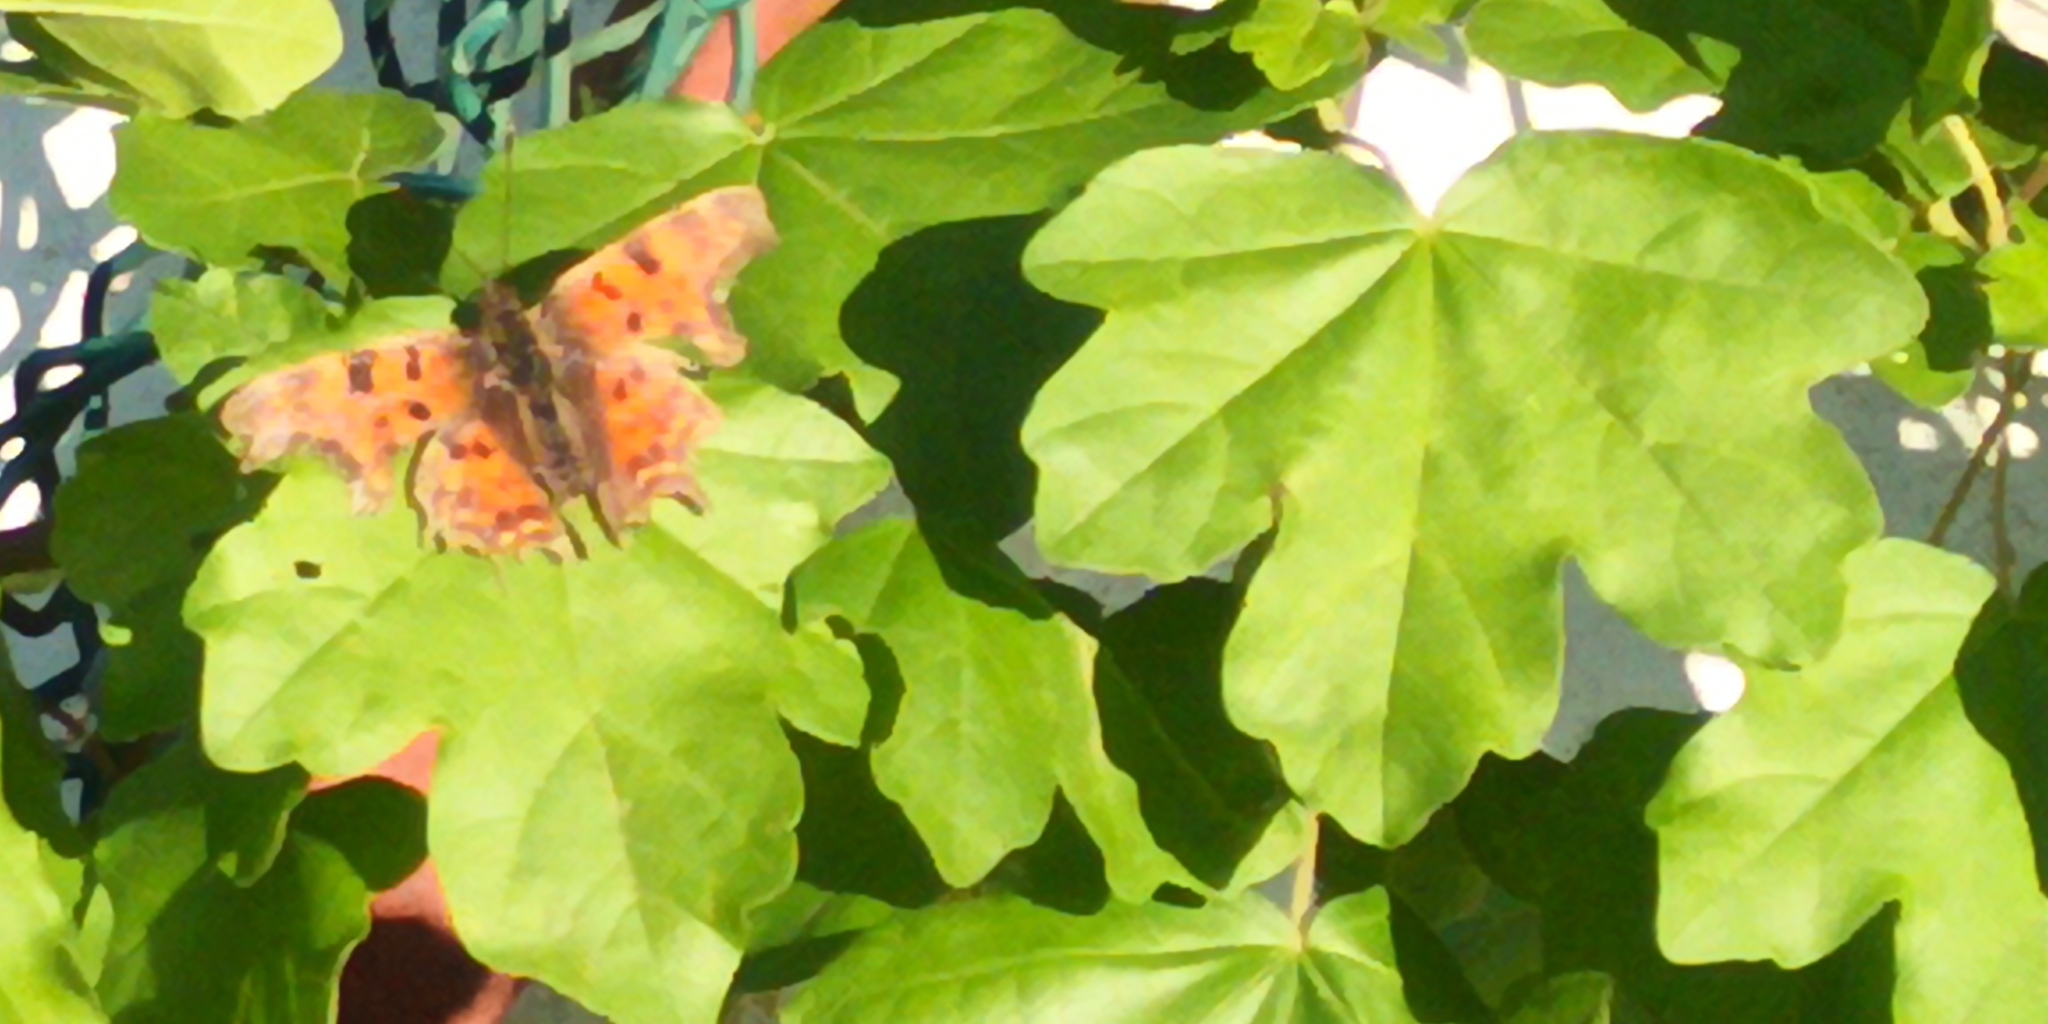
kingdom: Animalia
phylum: Arthropoda
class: Insecta
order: Lepidoptera
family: Nymphalidae
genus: Polygonia
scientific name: Polygonia c-album
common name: Comma
